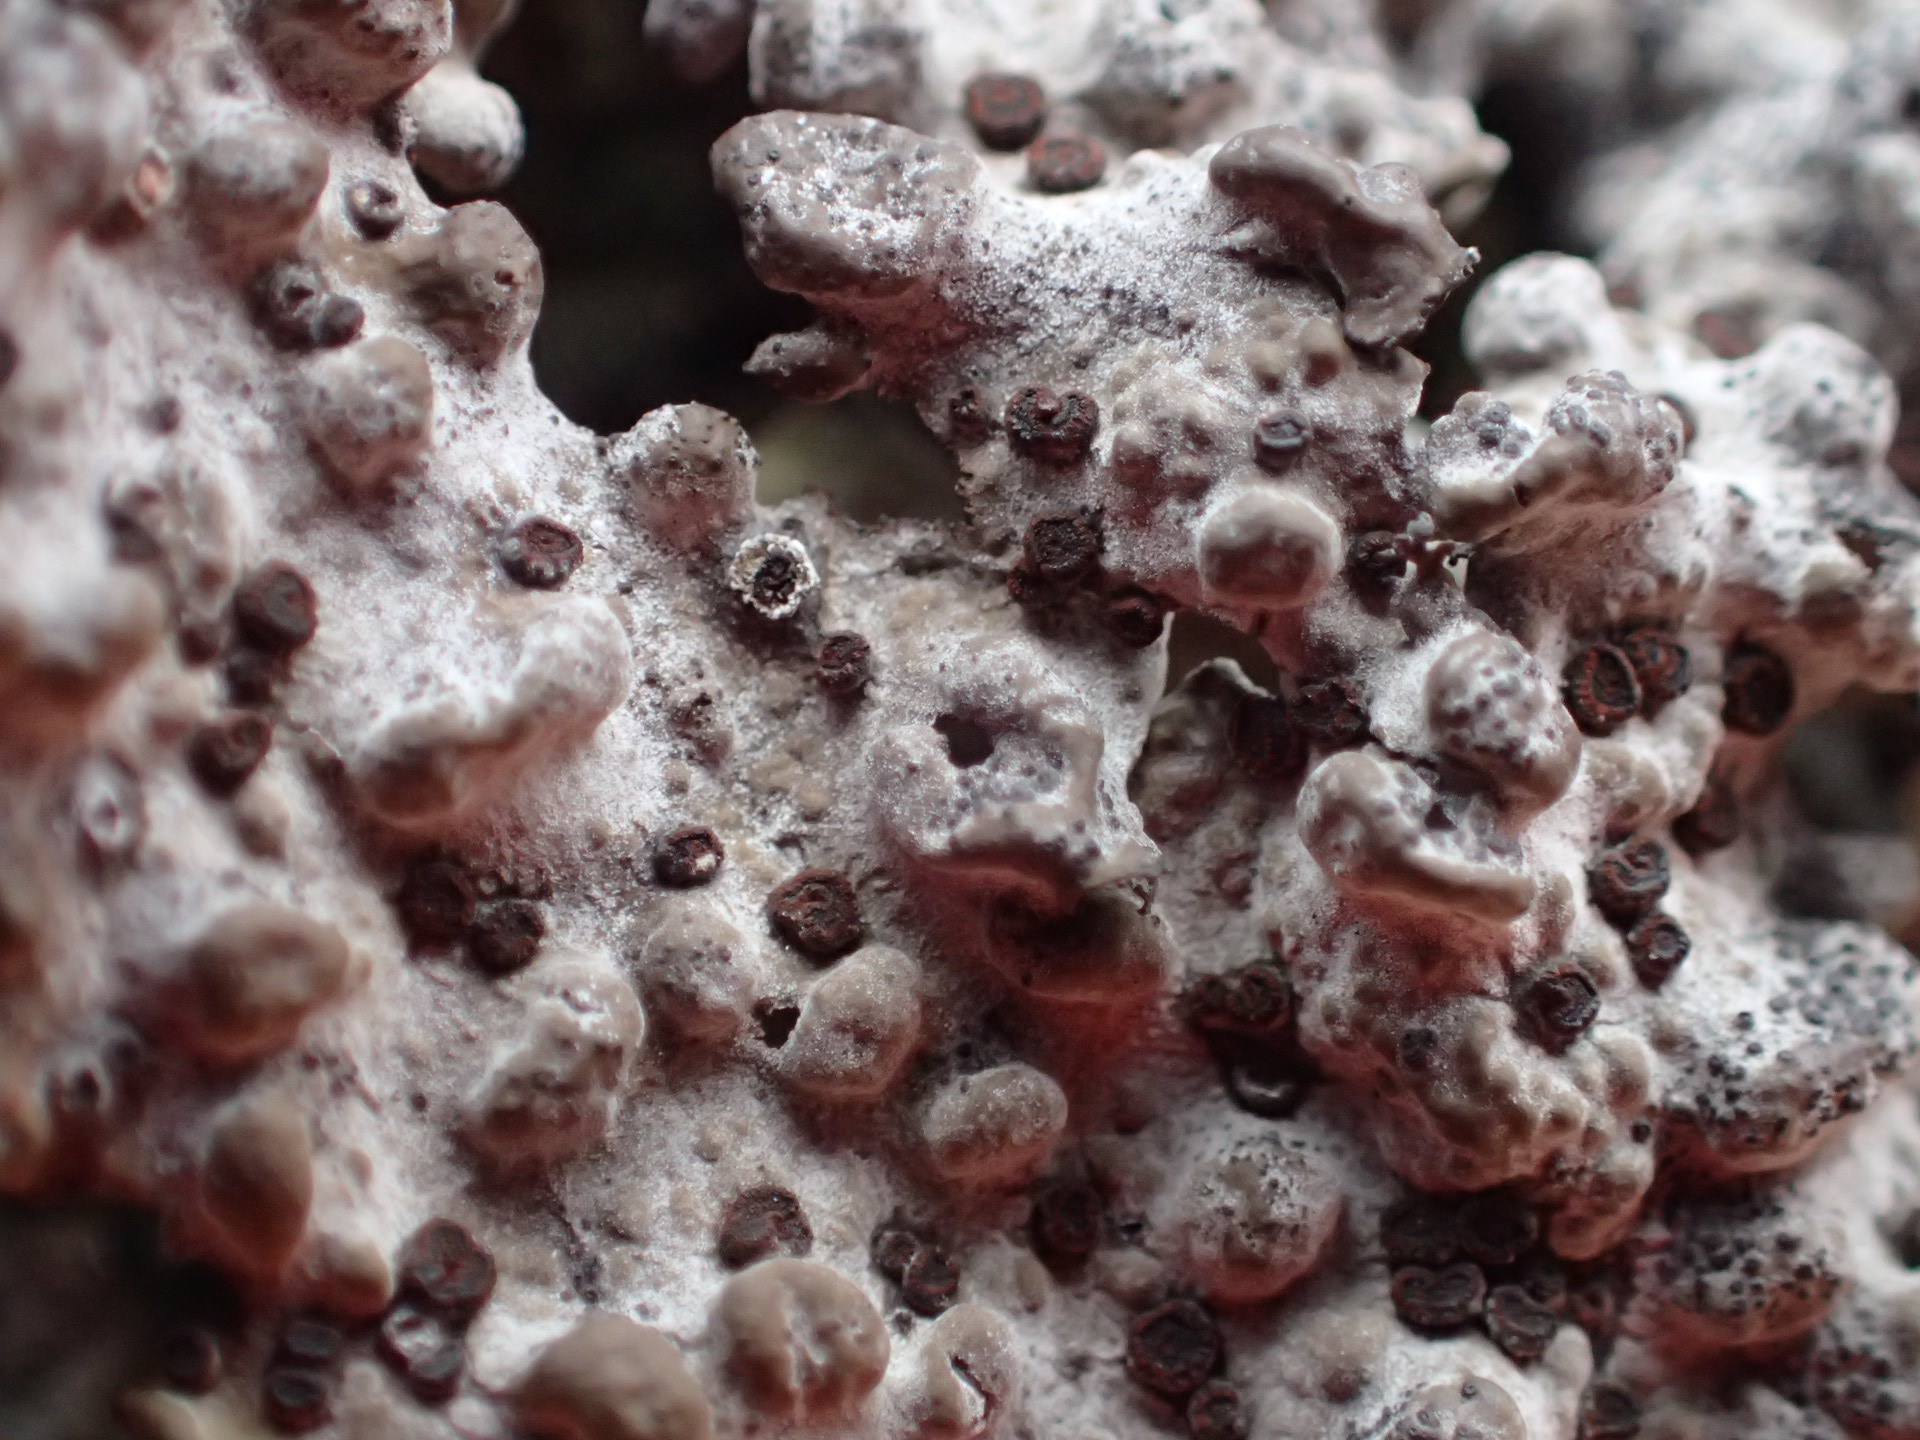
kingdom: Fungi
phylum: Ascomycota
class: Lecanoromycetes
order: Umbilicariales
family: Umbilicariaceae
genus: Lasallia
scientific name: Lasallia papulosa
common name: Common toadskin lichen
